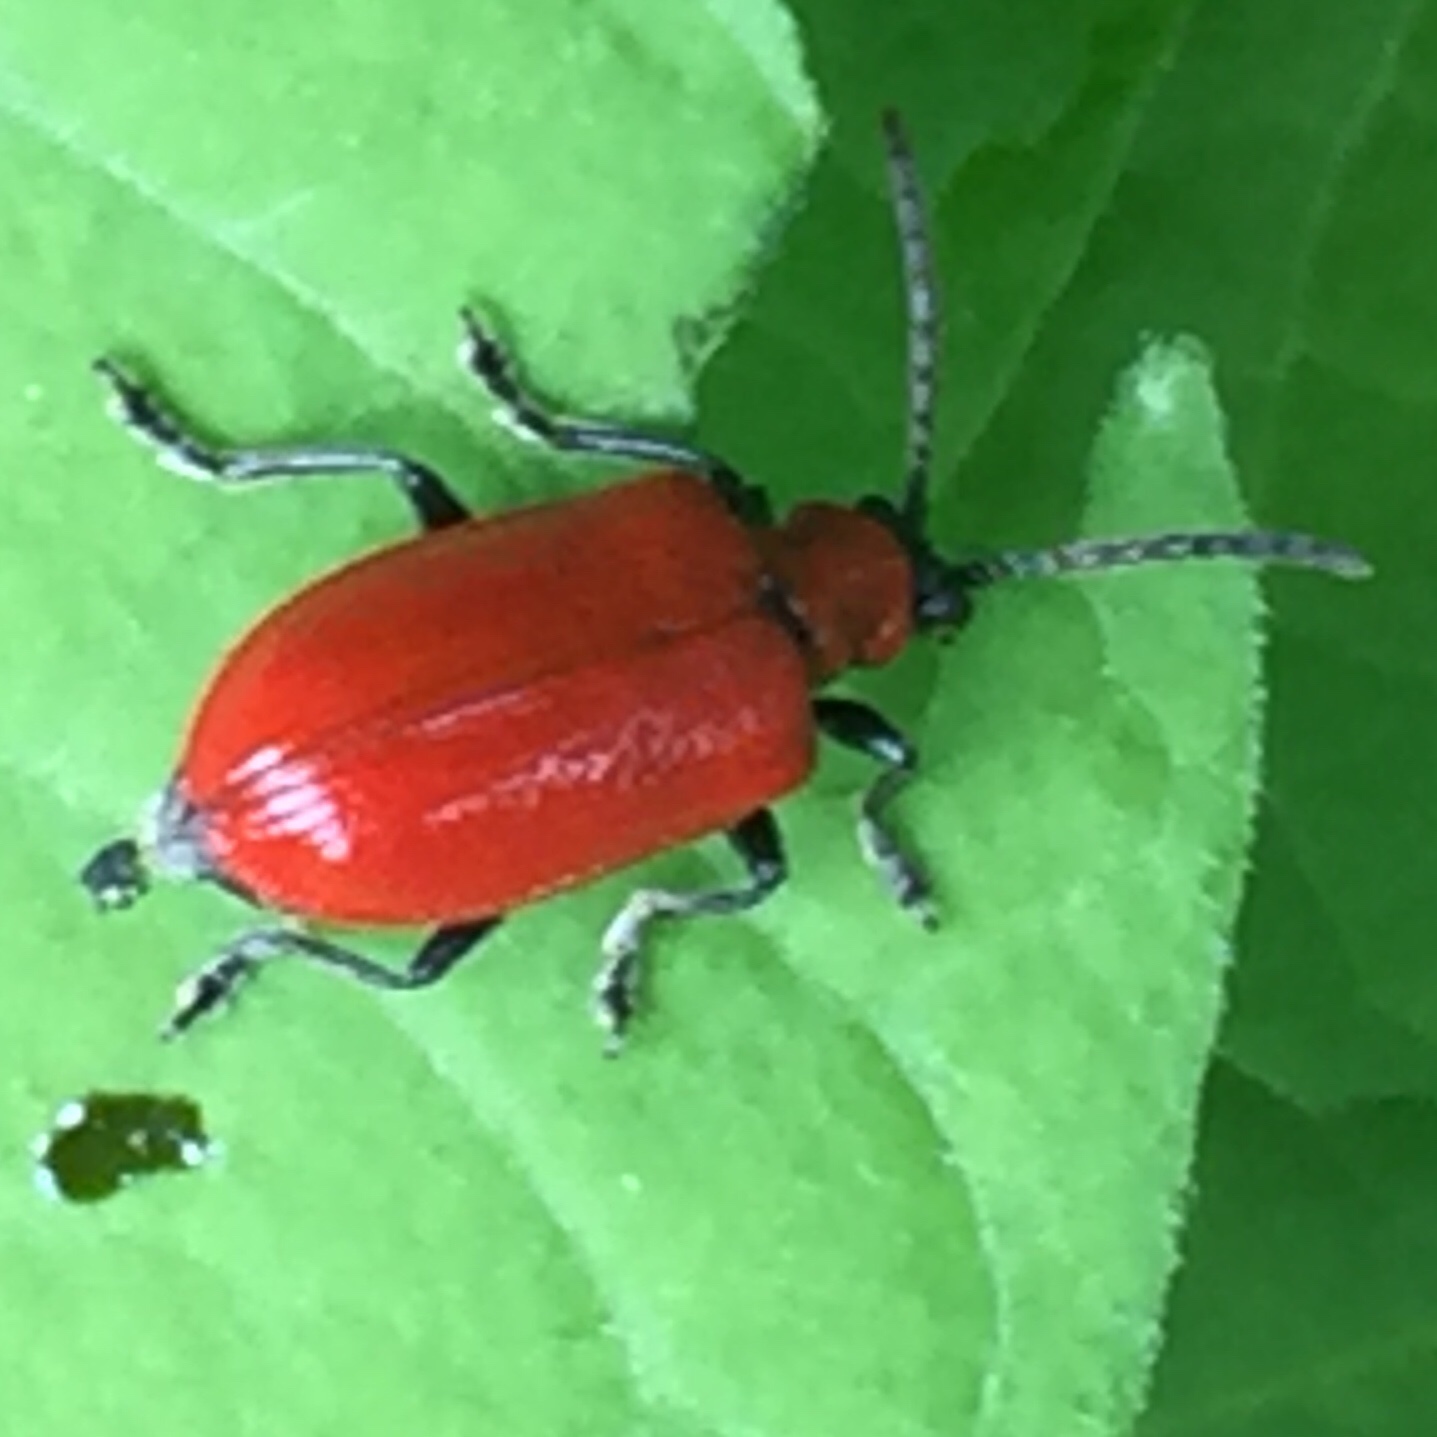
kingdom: Animalia
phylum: Arthropoda
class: Insecta
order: Coleoptera
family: Chrysomelidae
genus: Lilioceris
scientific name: Lilioceris lilii
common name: Lily beetle
